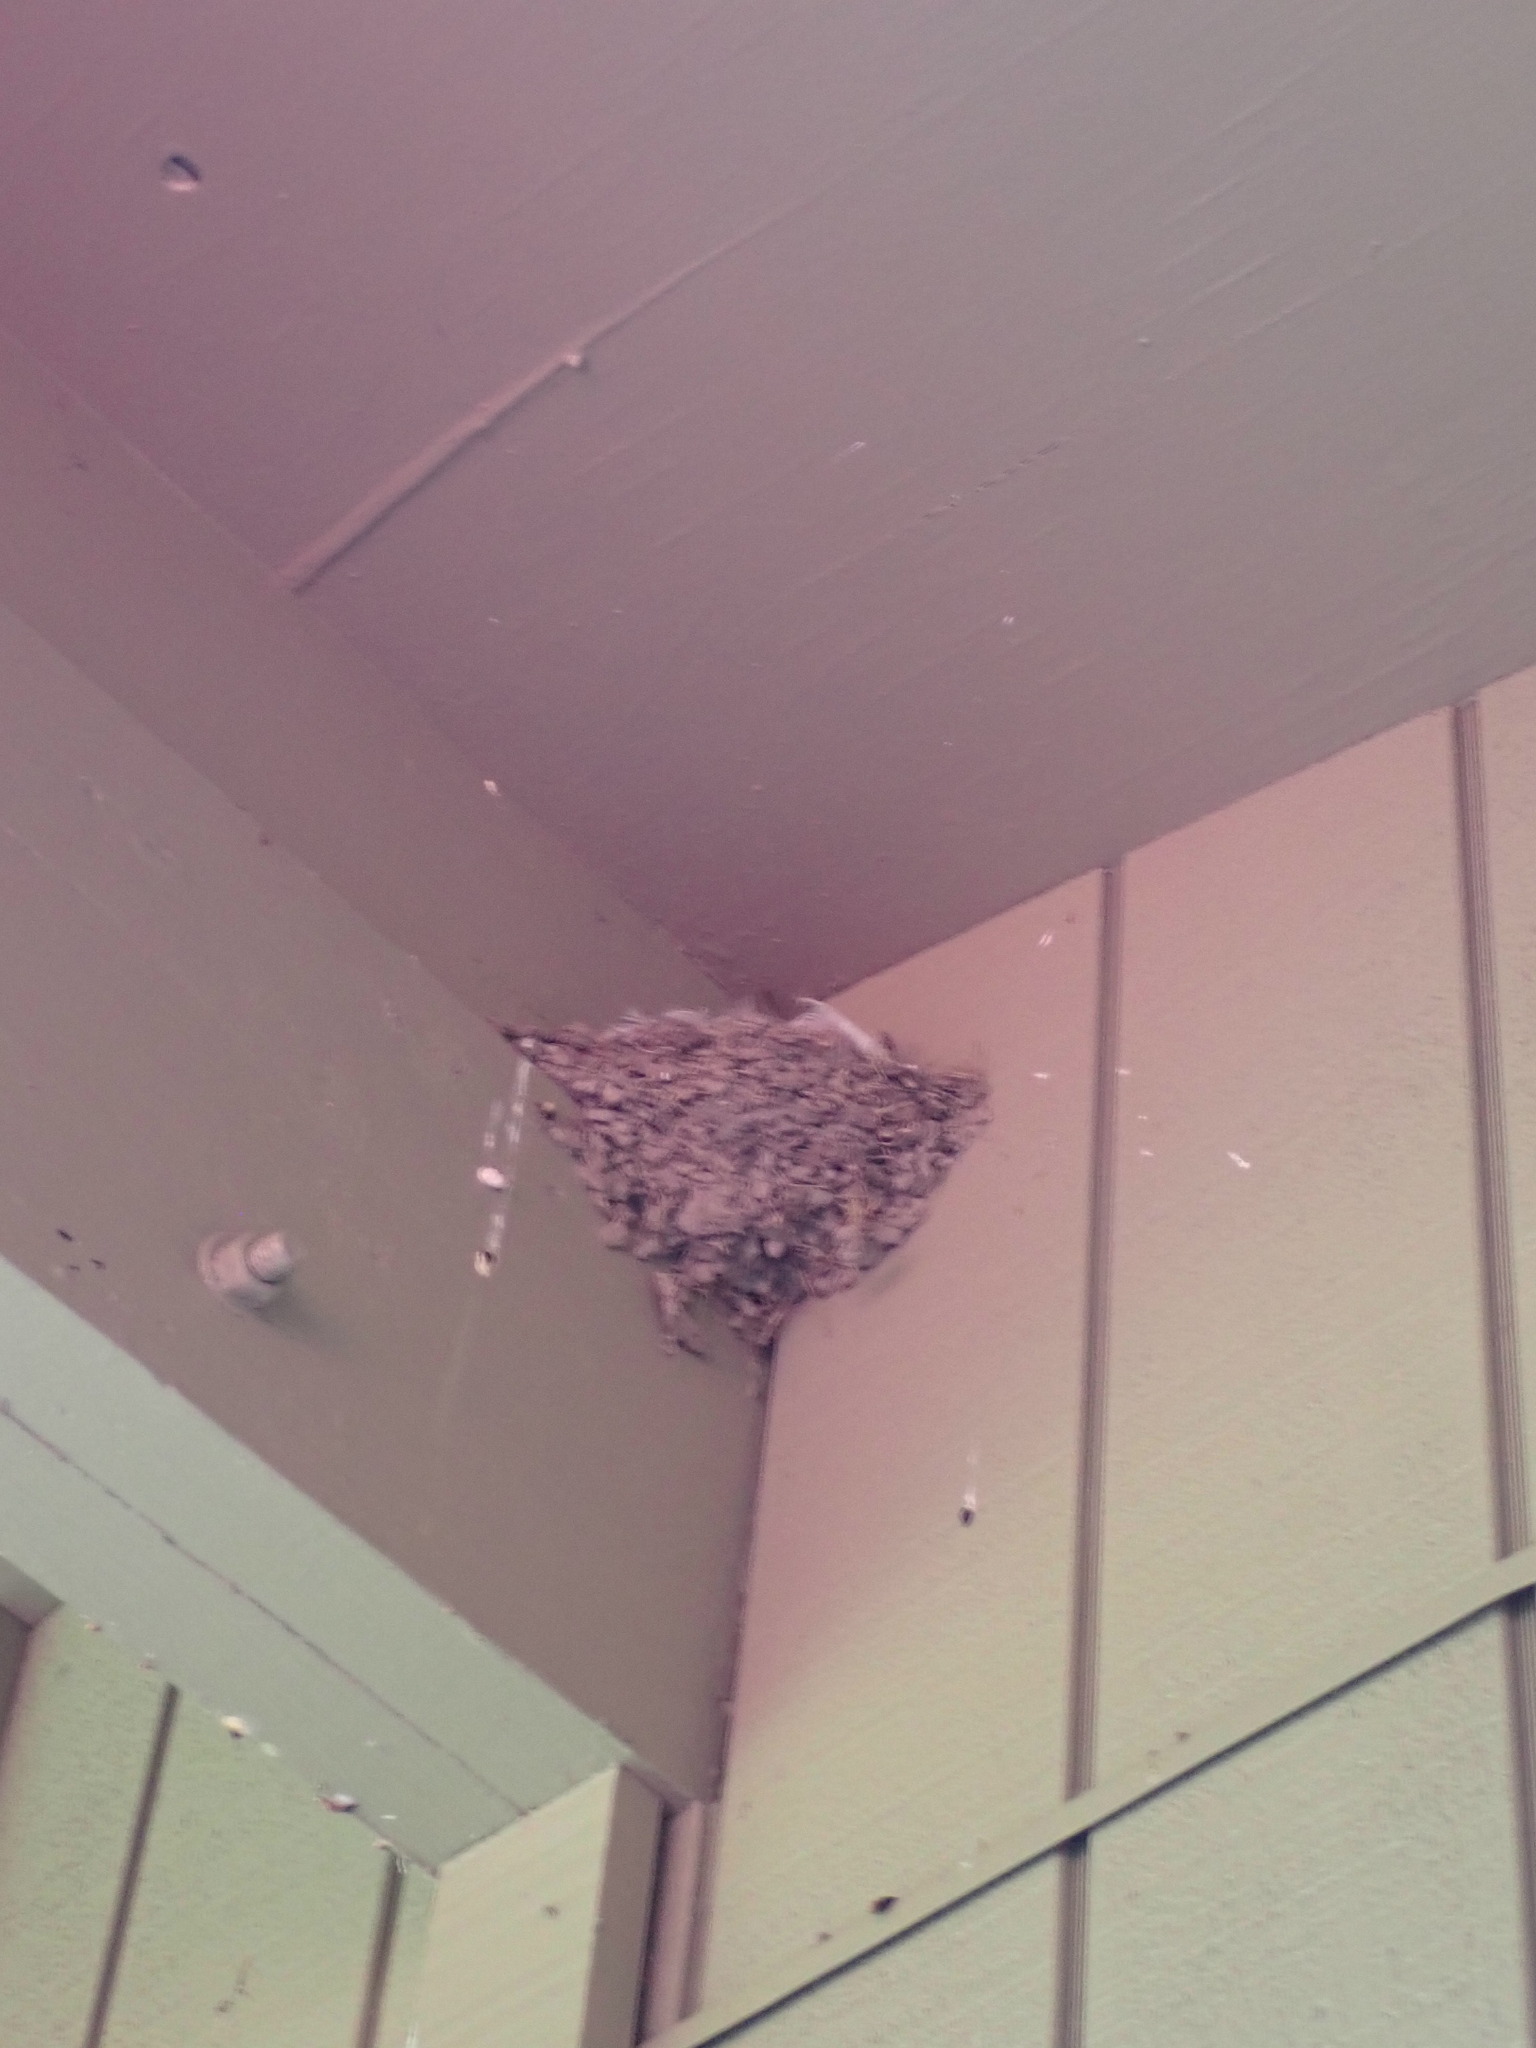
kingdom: Animalia
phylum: Chordata
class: Aves
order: Passeriformes
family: Hirundinidae
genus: Hirundo
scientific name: Hirundo neoxena
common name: Welcome swallow
